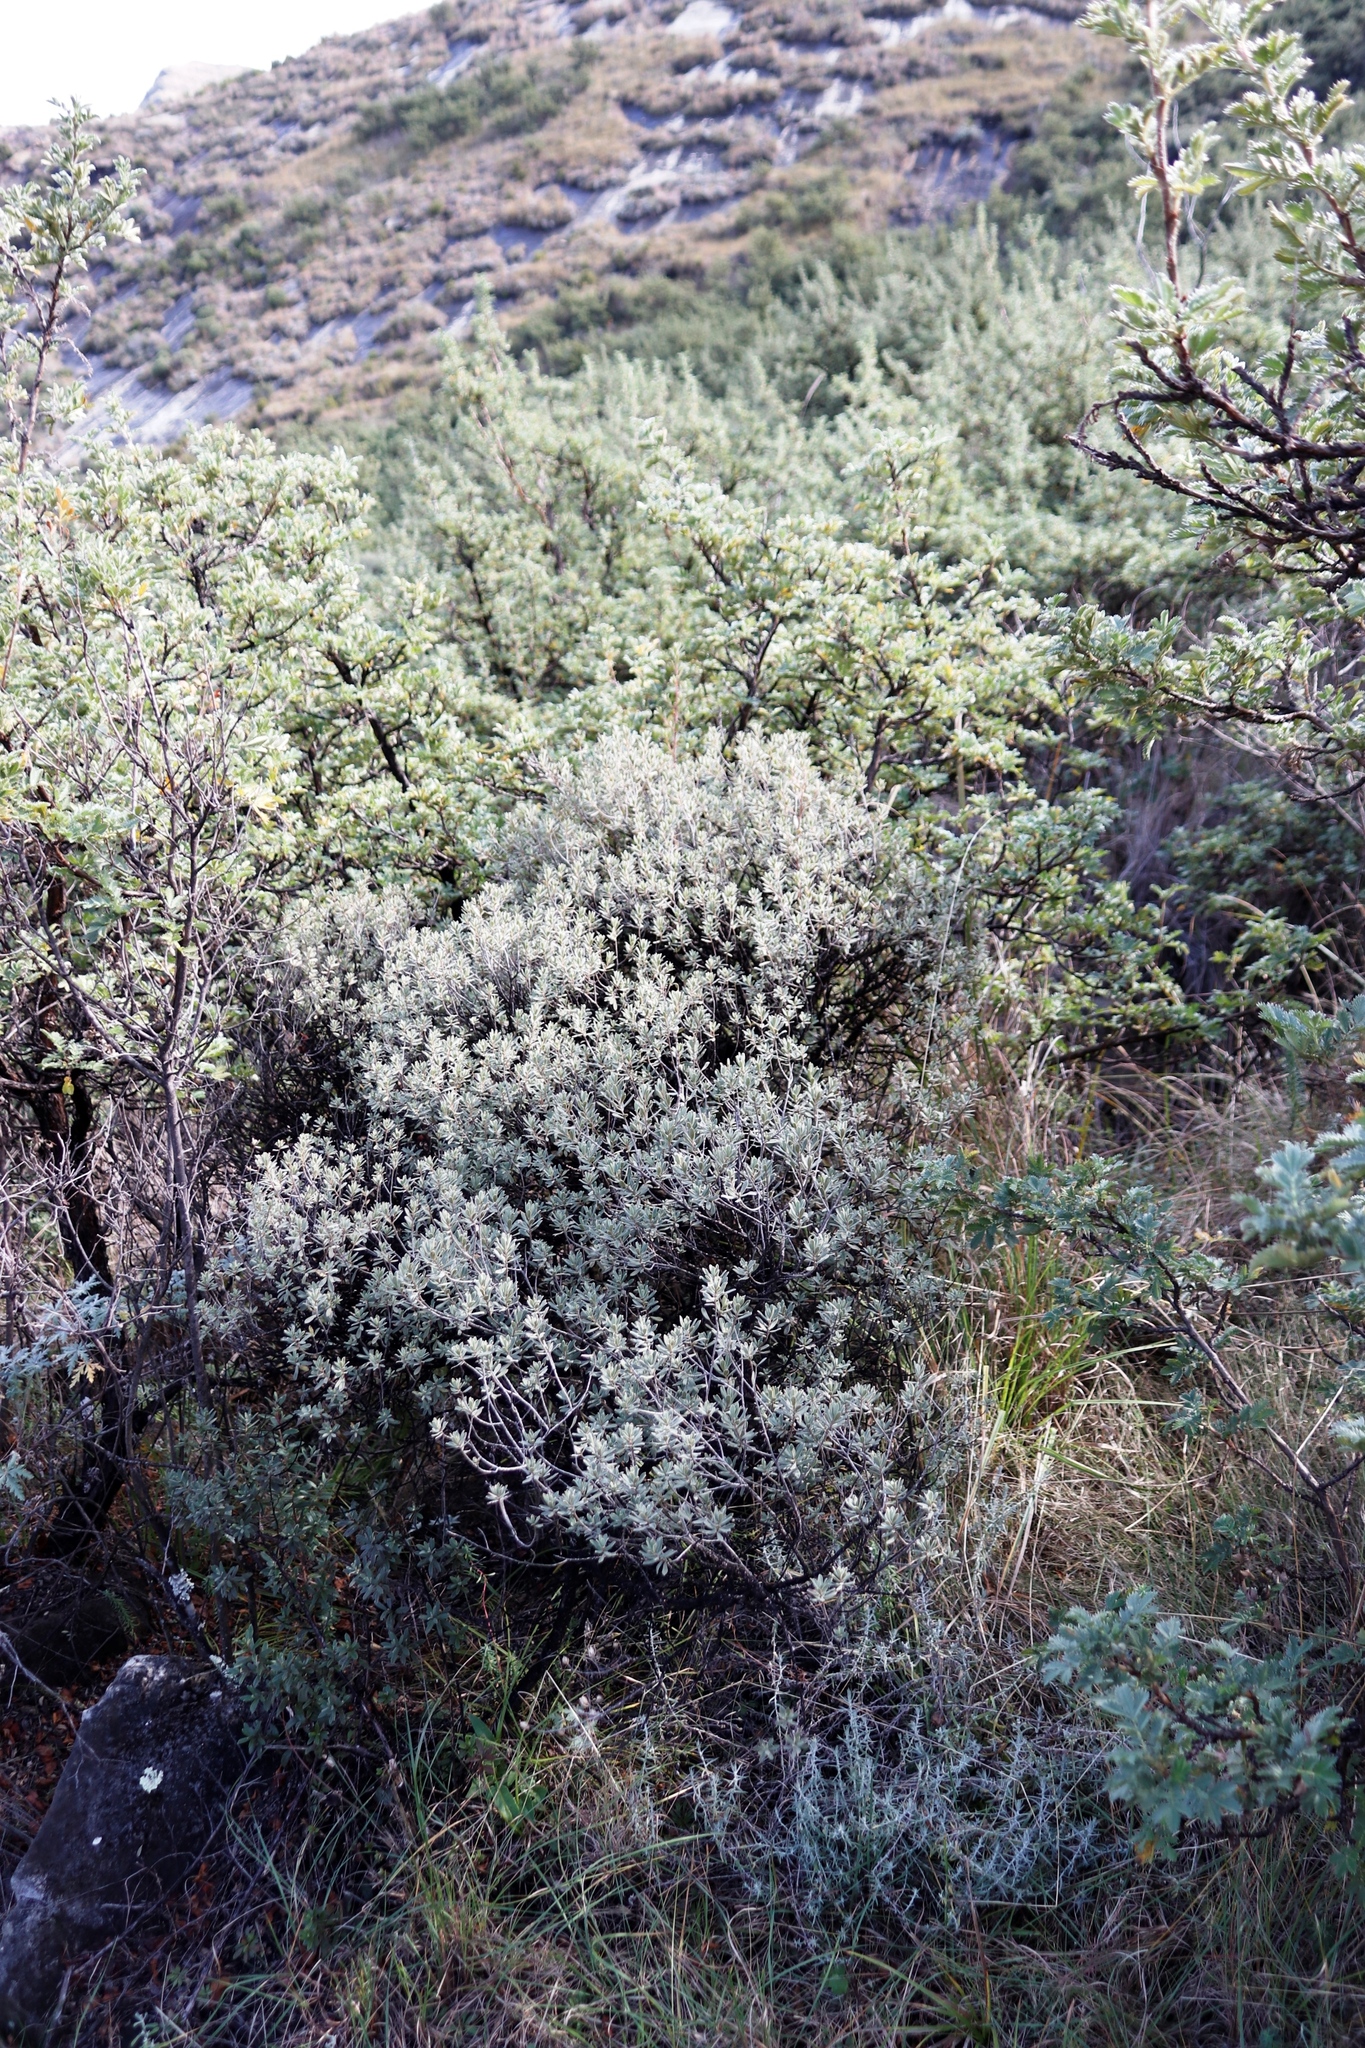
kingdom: Plantae
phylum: Tracheophyta
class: Magnoliopsida
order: Ericales
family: Ebenaceae
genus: Diospyros
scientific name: Diospyros pubescens
